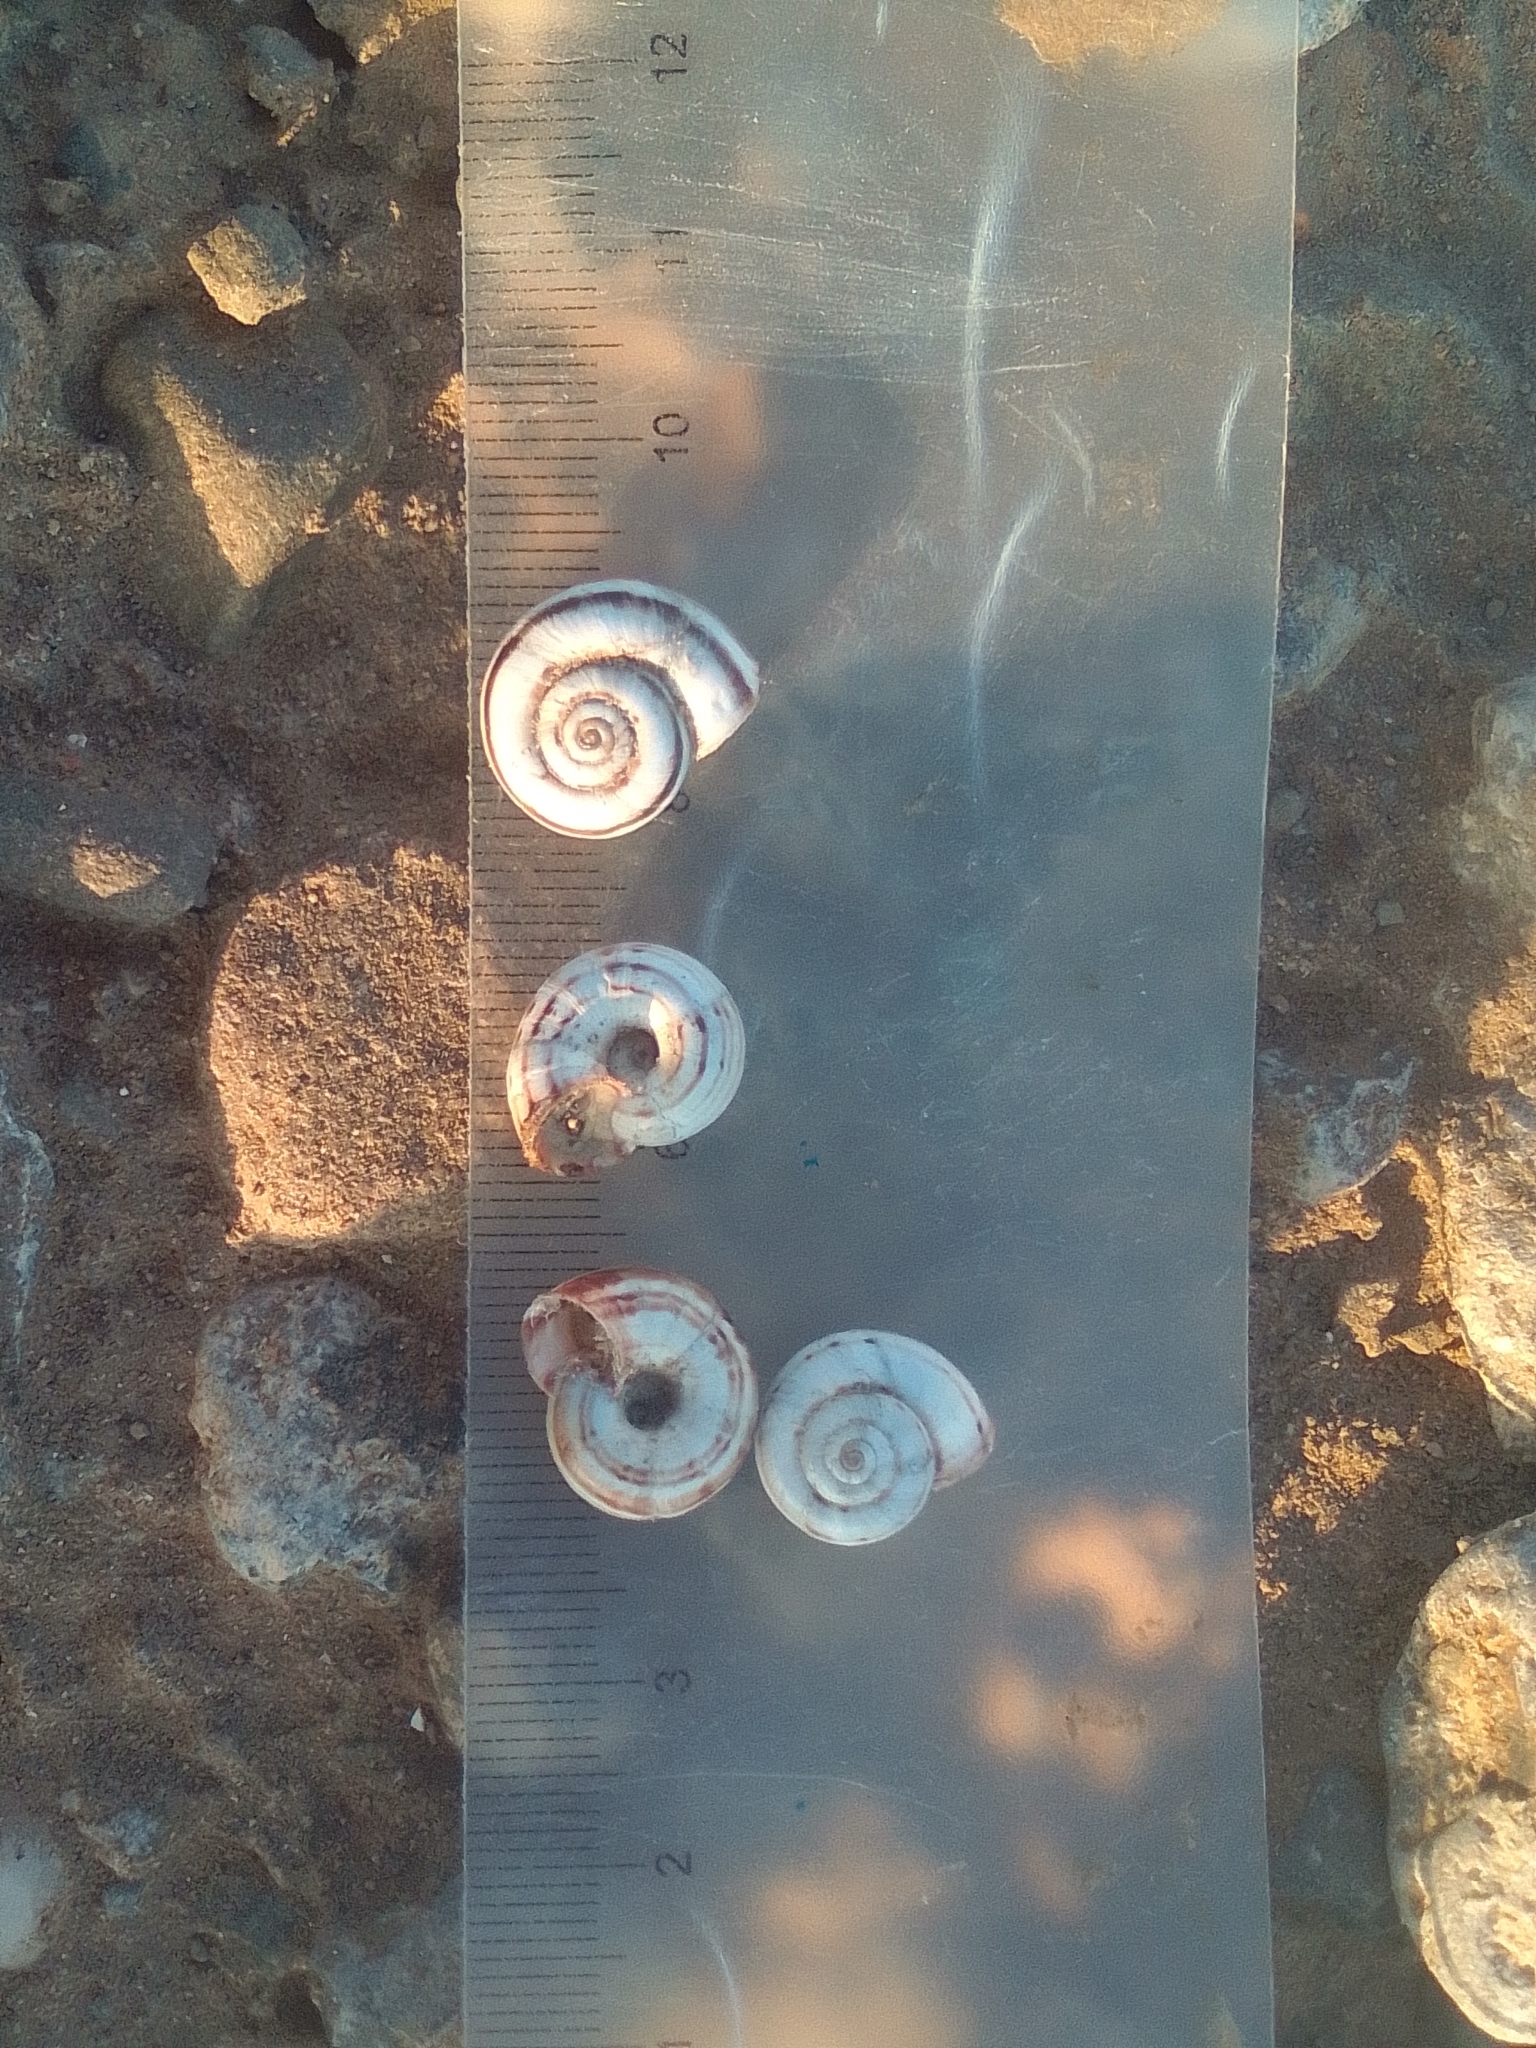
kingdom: Animalia
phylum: Mollusca
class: Gastropoda
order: Stylommatophora
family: Geomitridae
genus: Xeropicta
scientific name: Xeropicta derbentina
